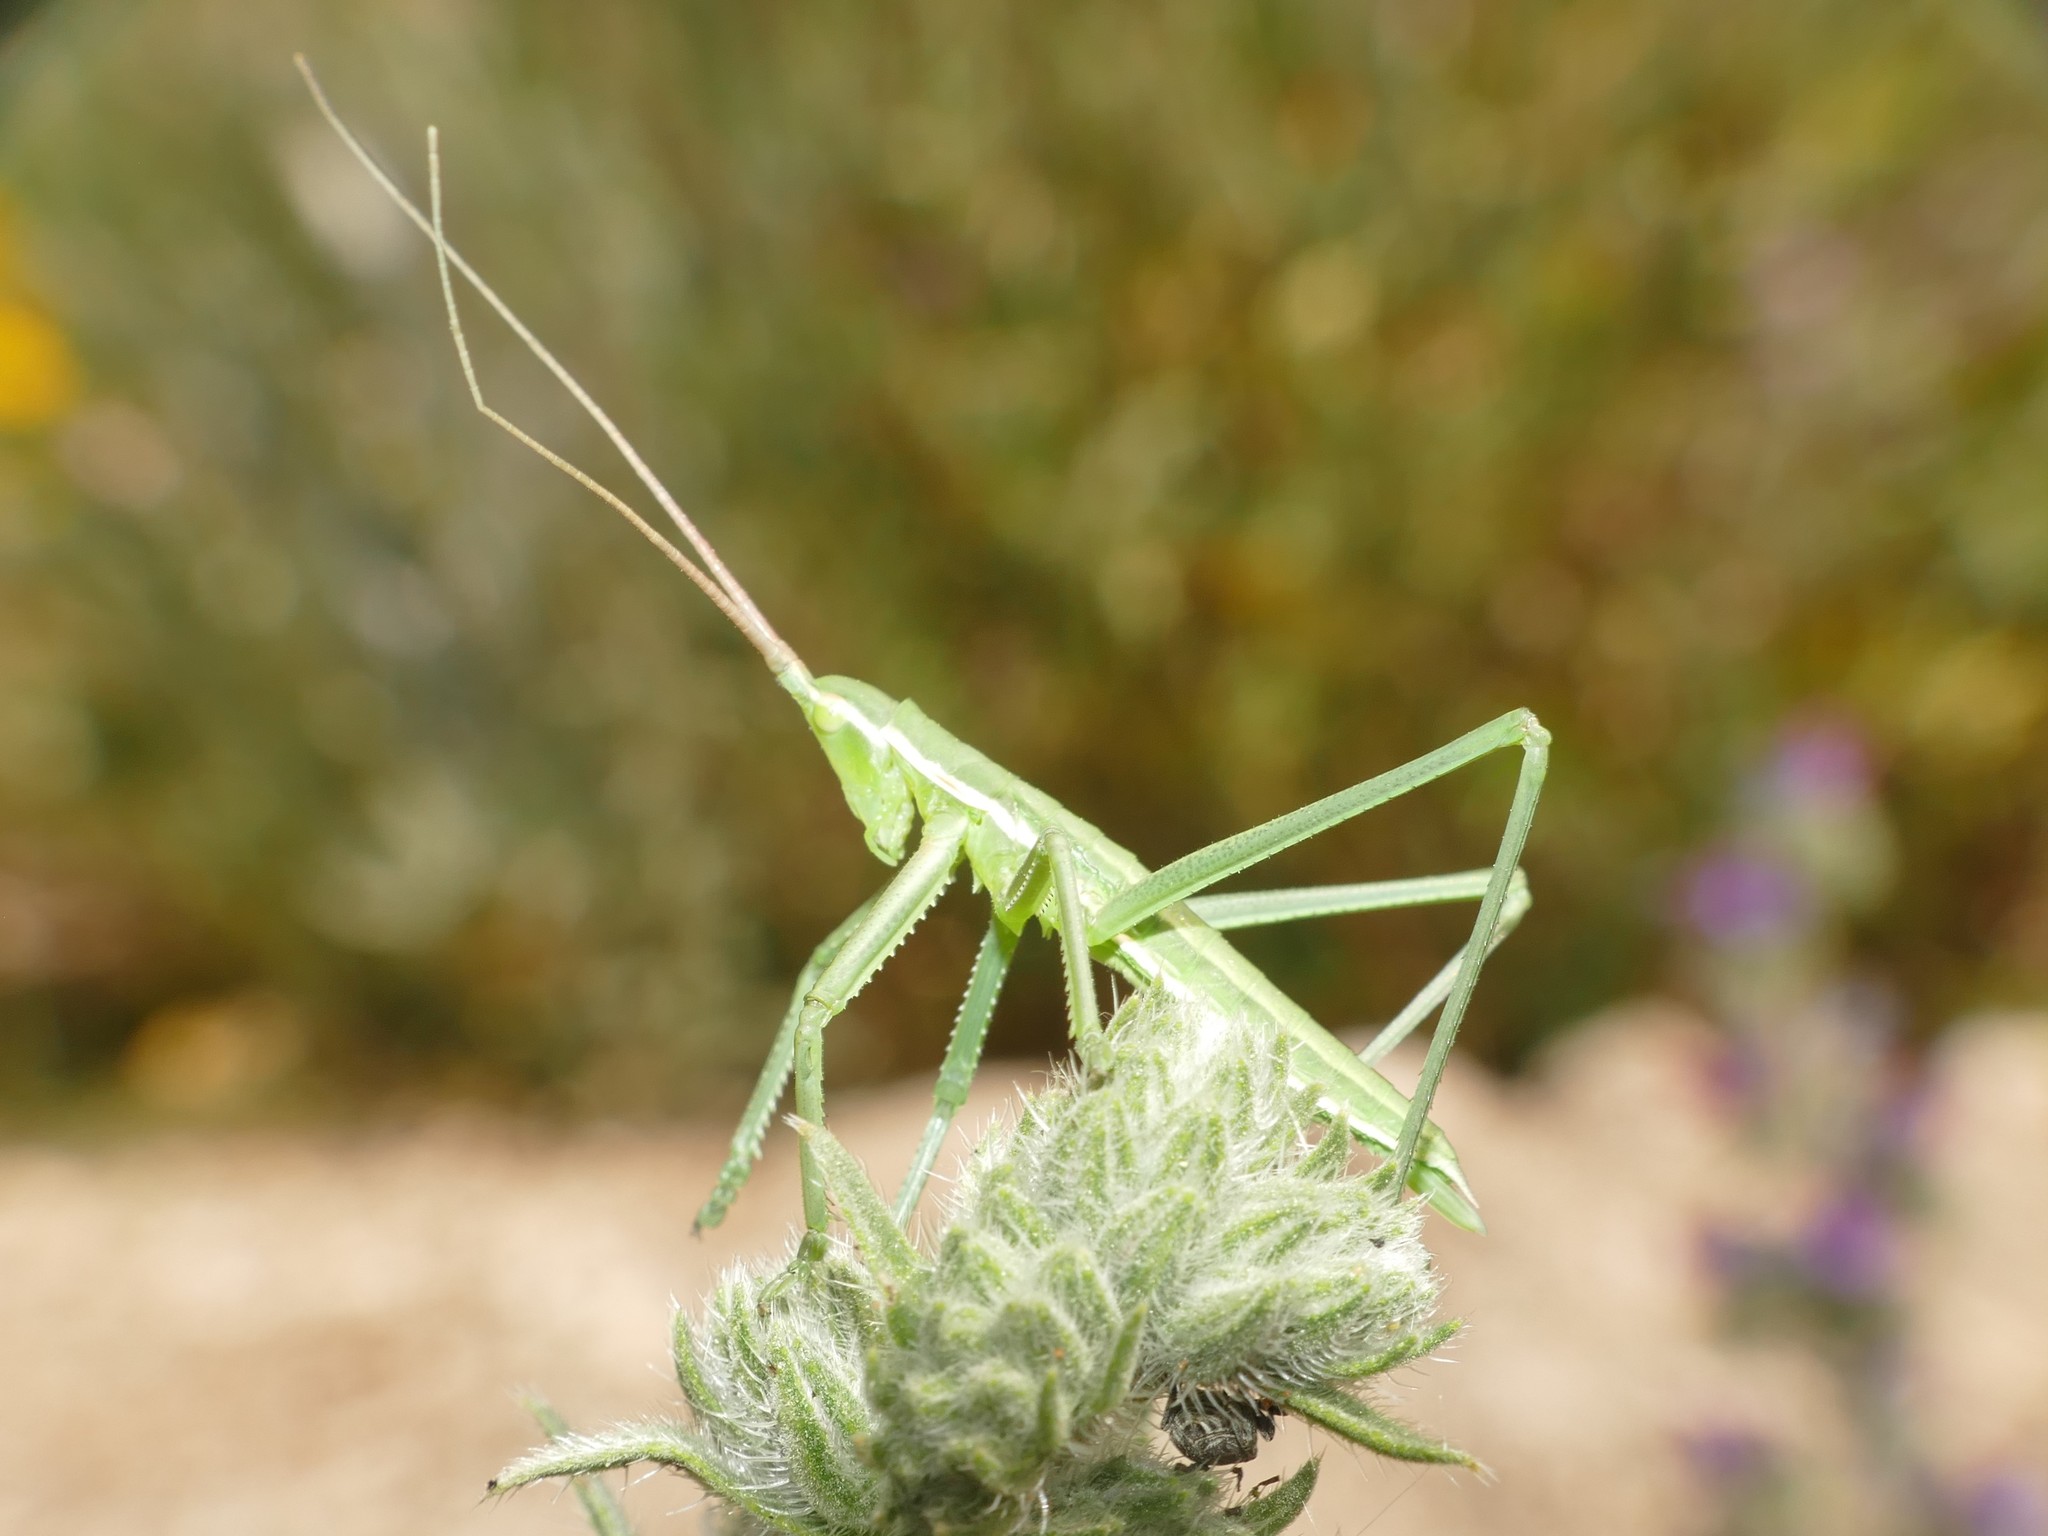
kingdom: Animalia
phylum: Arthropoda
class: Insecta
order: Orthoptera
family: Tettigoniidae
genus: Saga
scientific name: Saga pedo
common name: Common predatory bush-cricket
